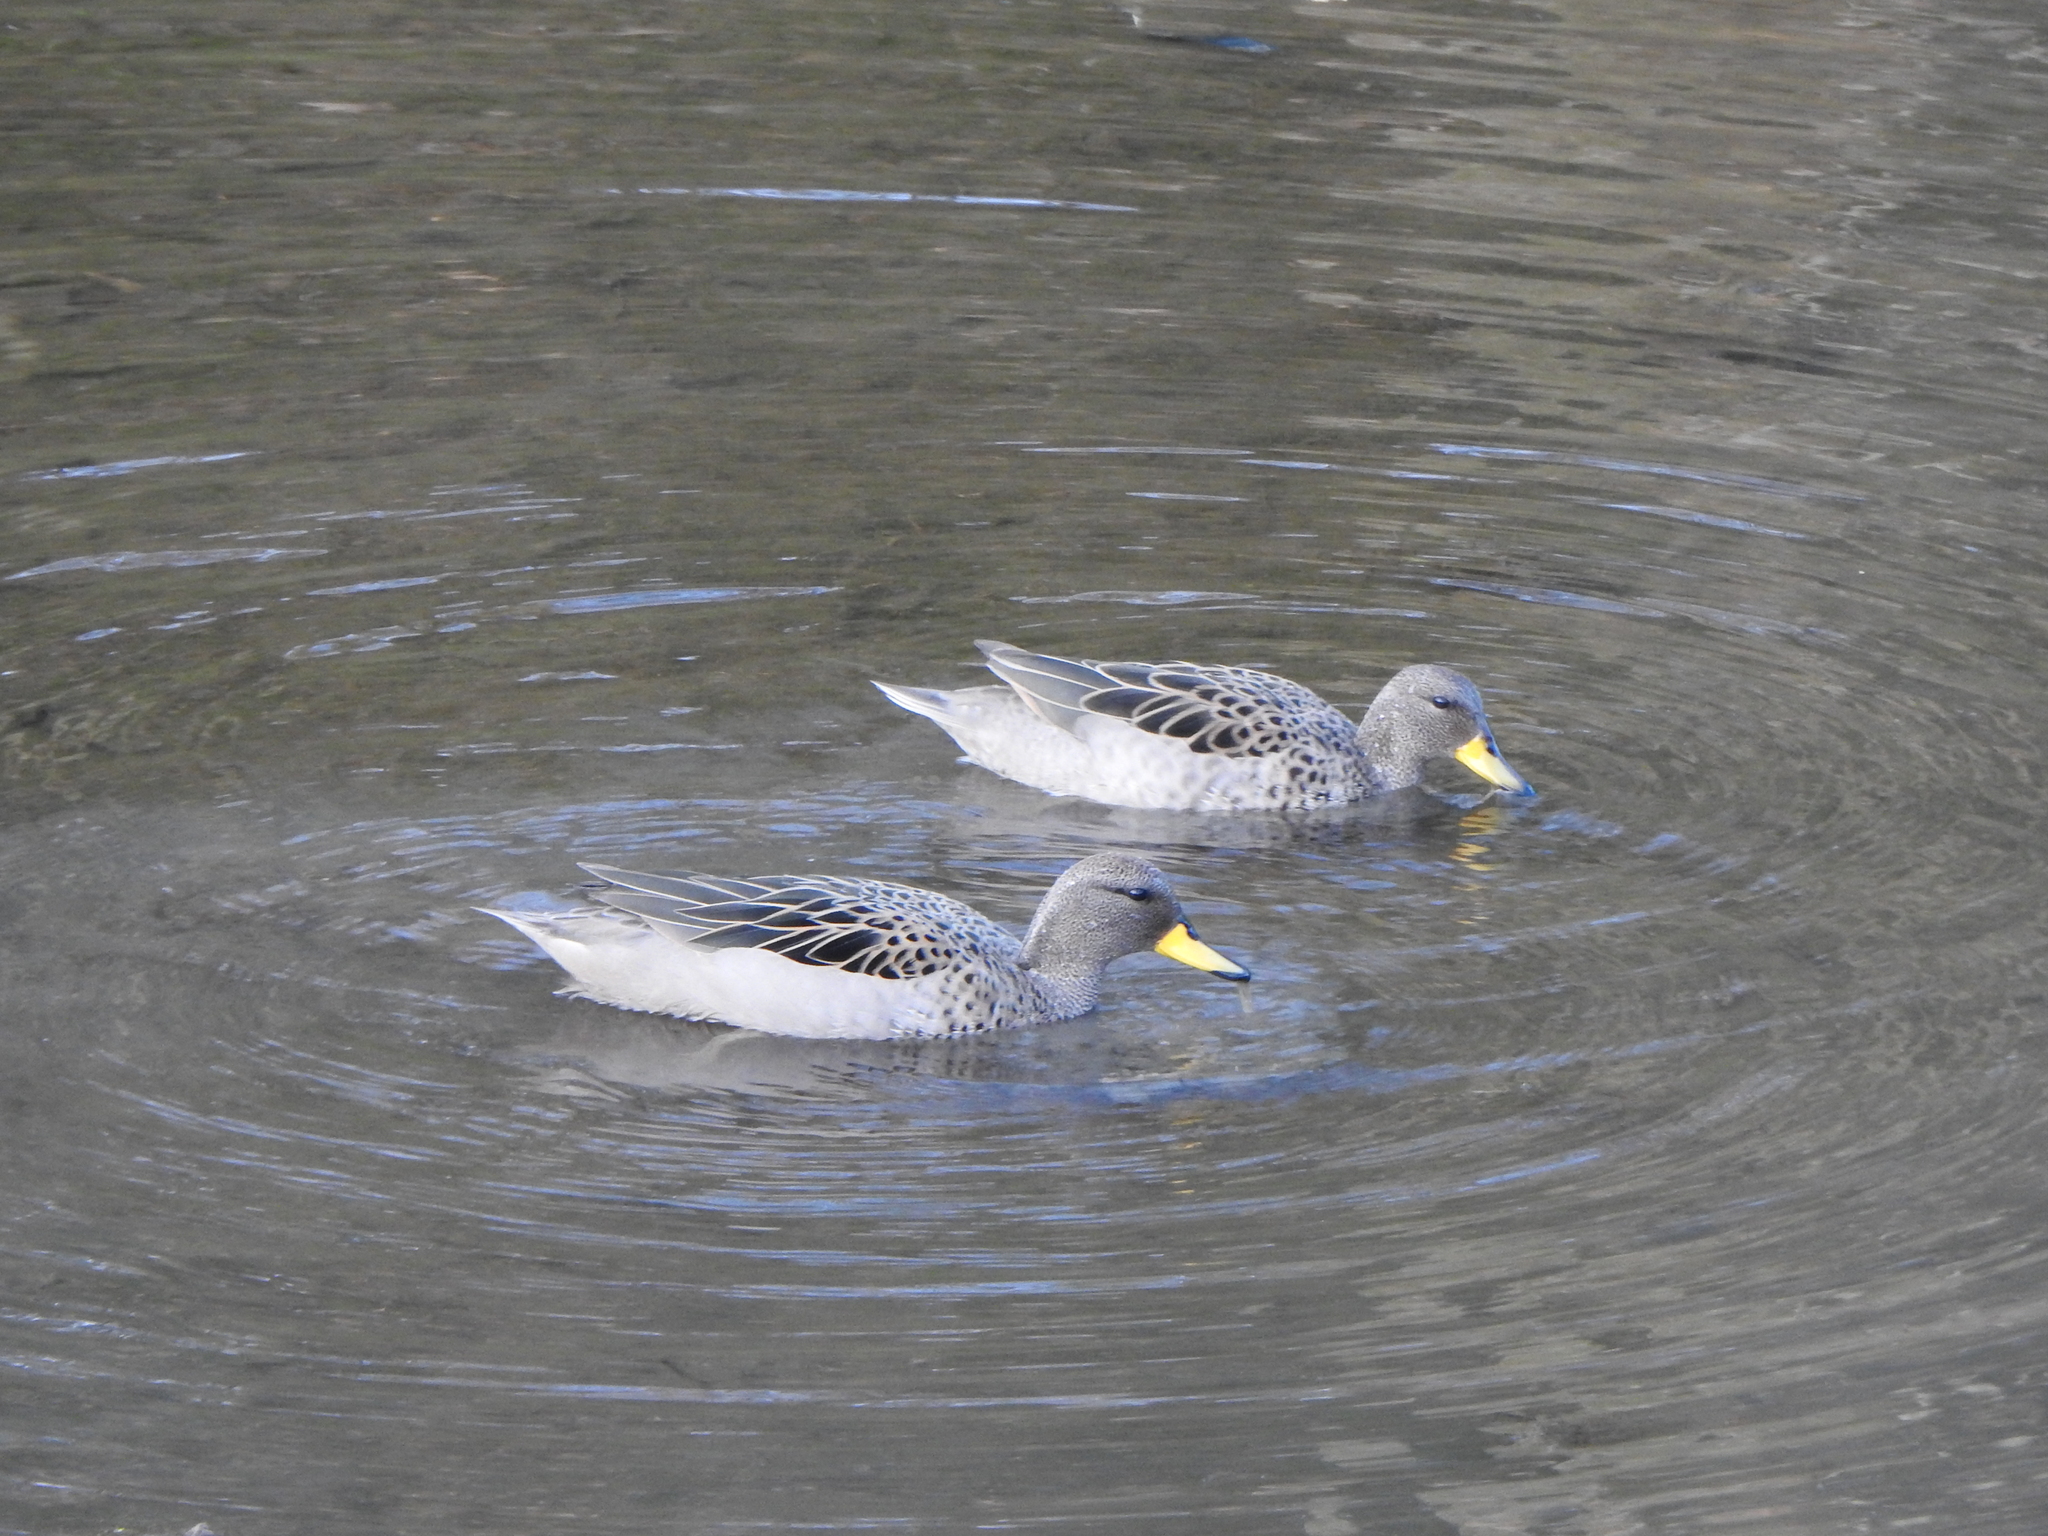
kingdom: Animalia
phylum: Chordata
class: Aves
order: Anseriformes
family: Anatidae
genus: Anas
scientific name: Anas flavirostris
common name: Yellow-billed teal
